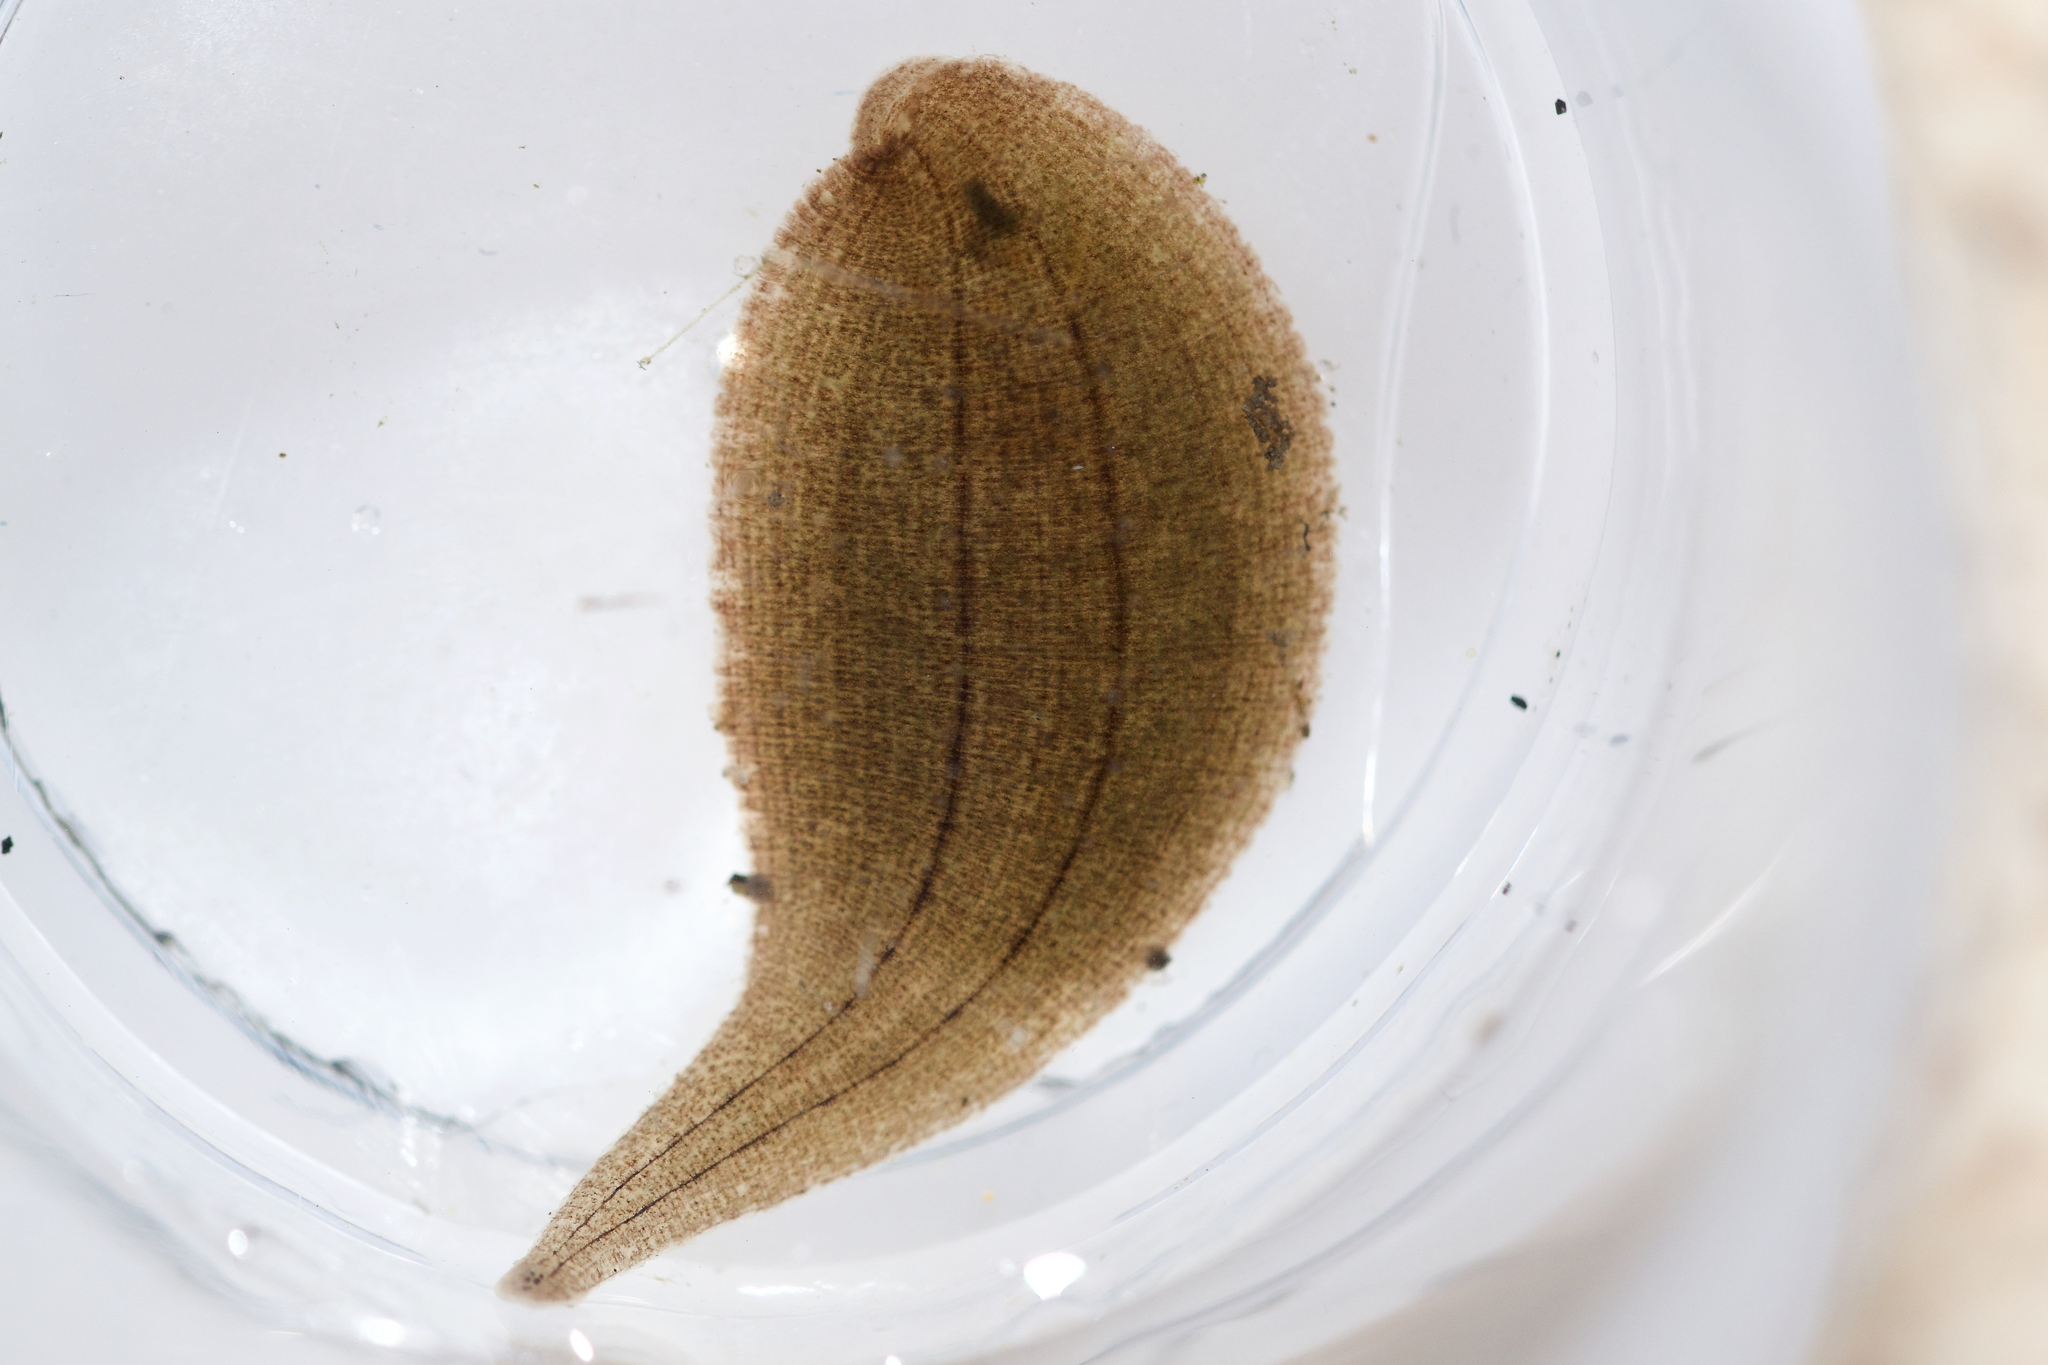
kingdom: Animalia
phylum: Annelida
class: Clitellata
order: Rhynchobdellida
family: Glossiphoniidae
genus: Glossiphonia
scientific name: Glossiphonia complanata
